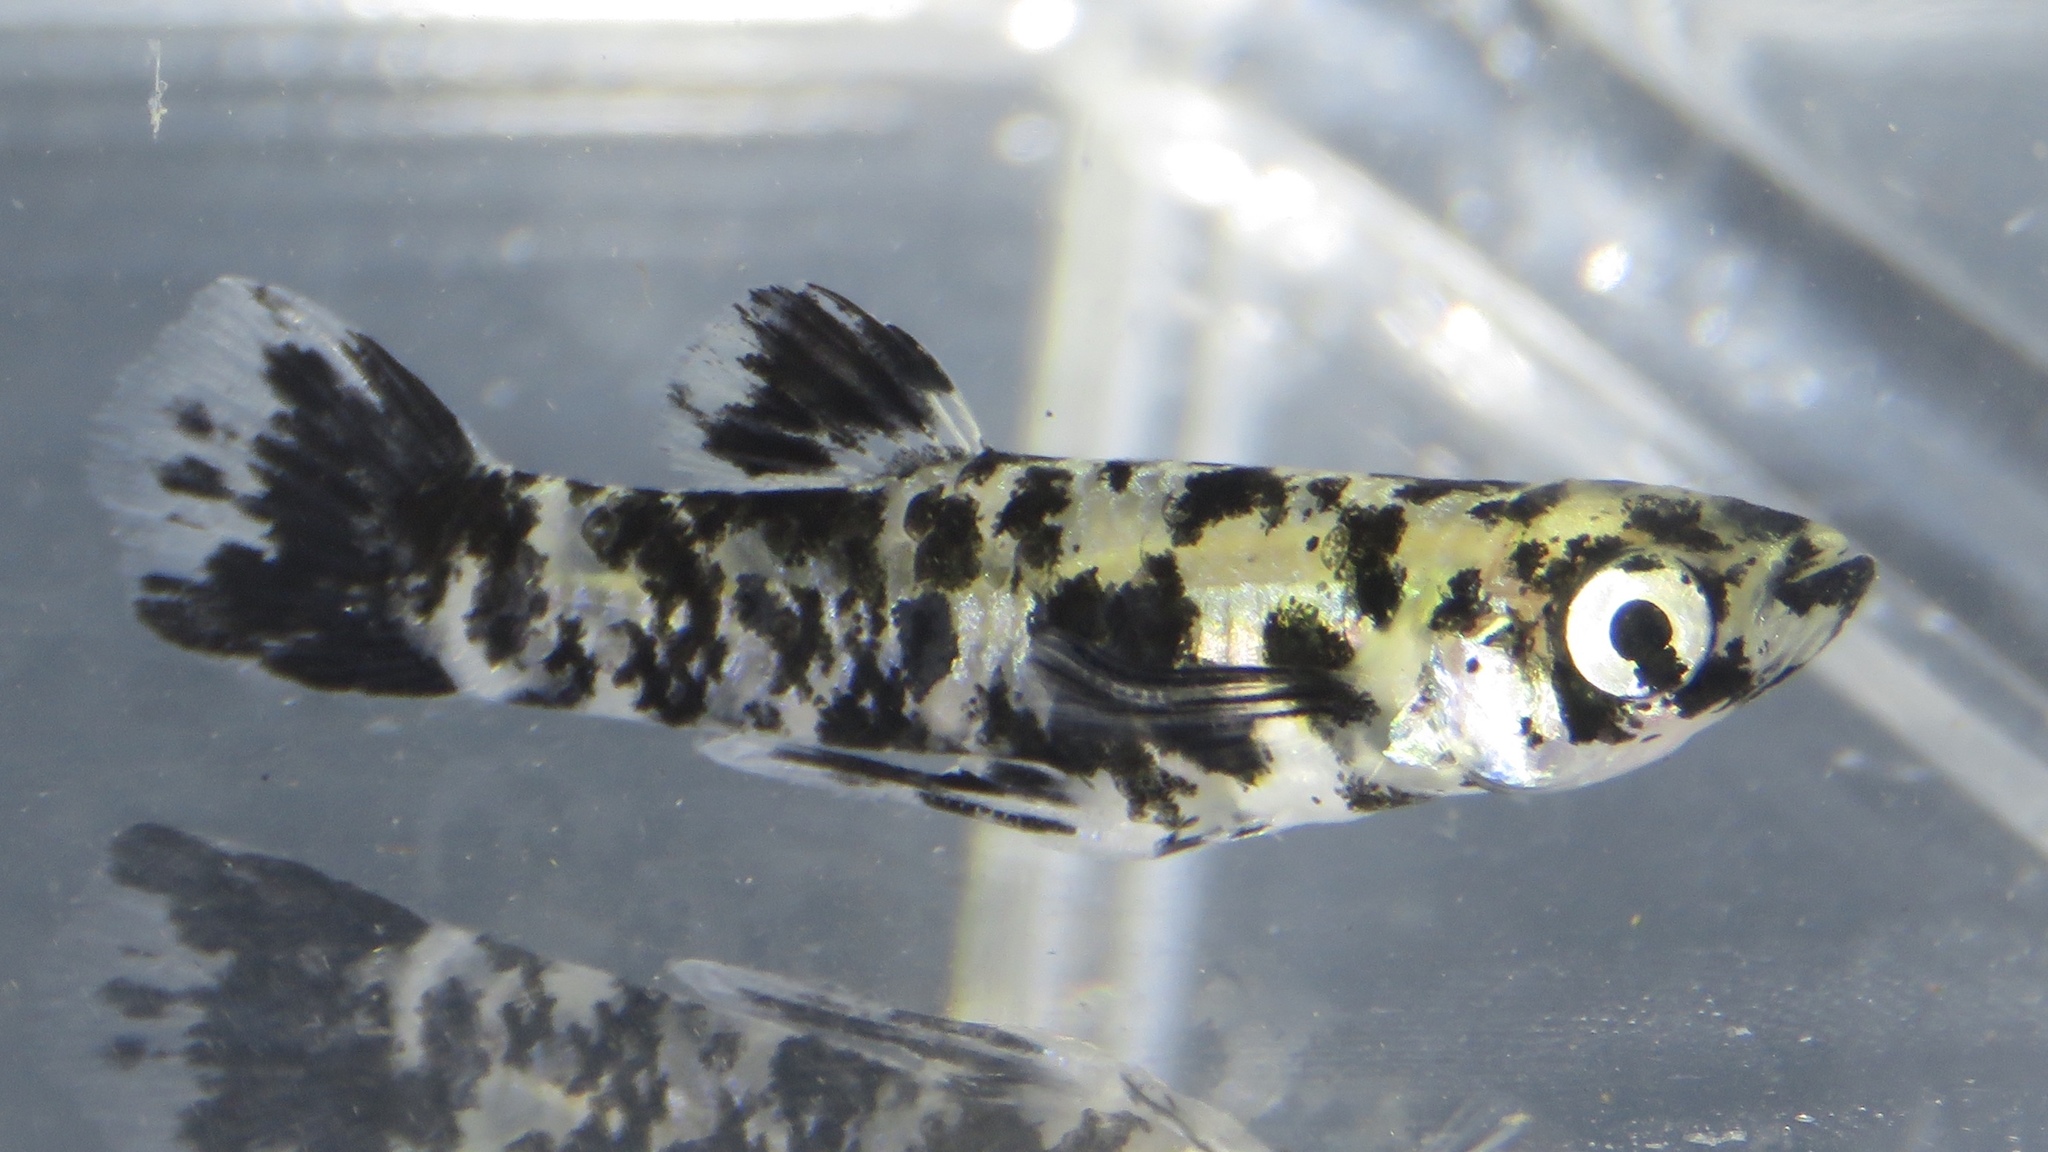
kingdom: Animalia
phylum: Chordata
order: Cyprinodontiformes
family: Poeciliidae
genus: Gambusia
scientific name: Gambusia holbrooki
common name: Eastern mosquitofish
